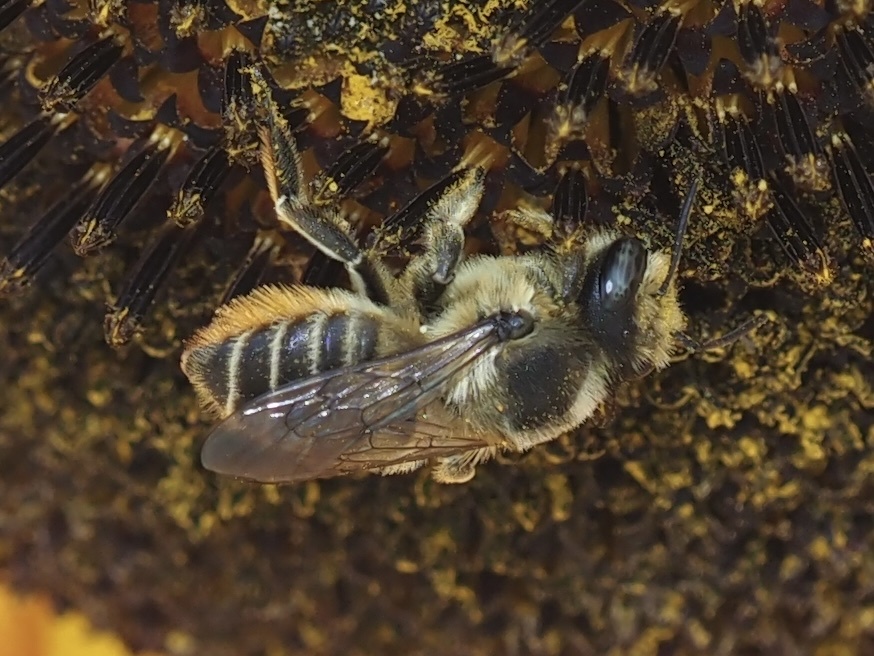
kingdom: Animalia
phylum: Arthropoda
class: Insecta
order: Hymenoptera
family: Megachilidae
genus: Megachile
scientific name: Megachile perihirta
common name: Western leafcutter
